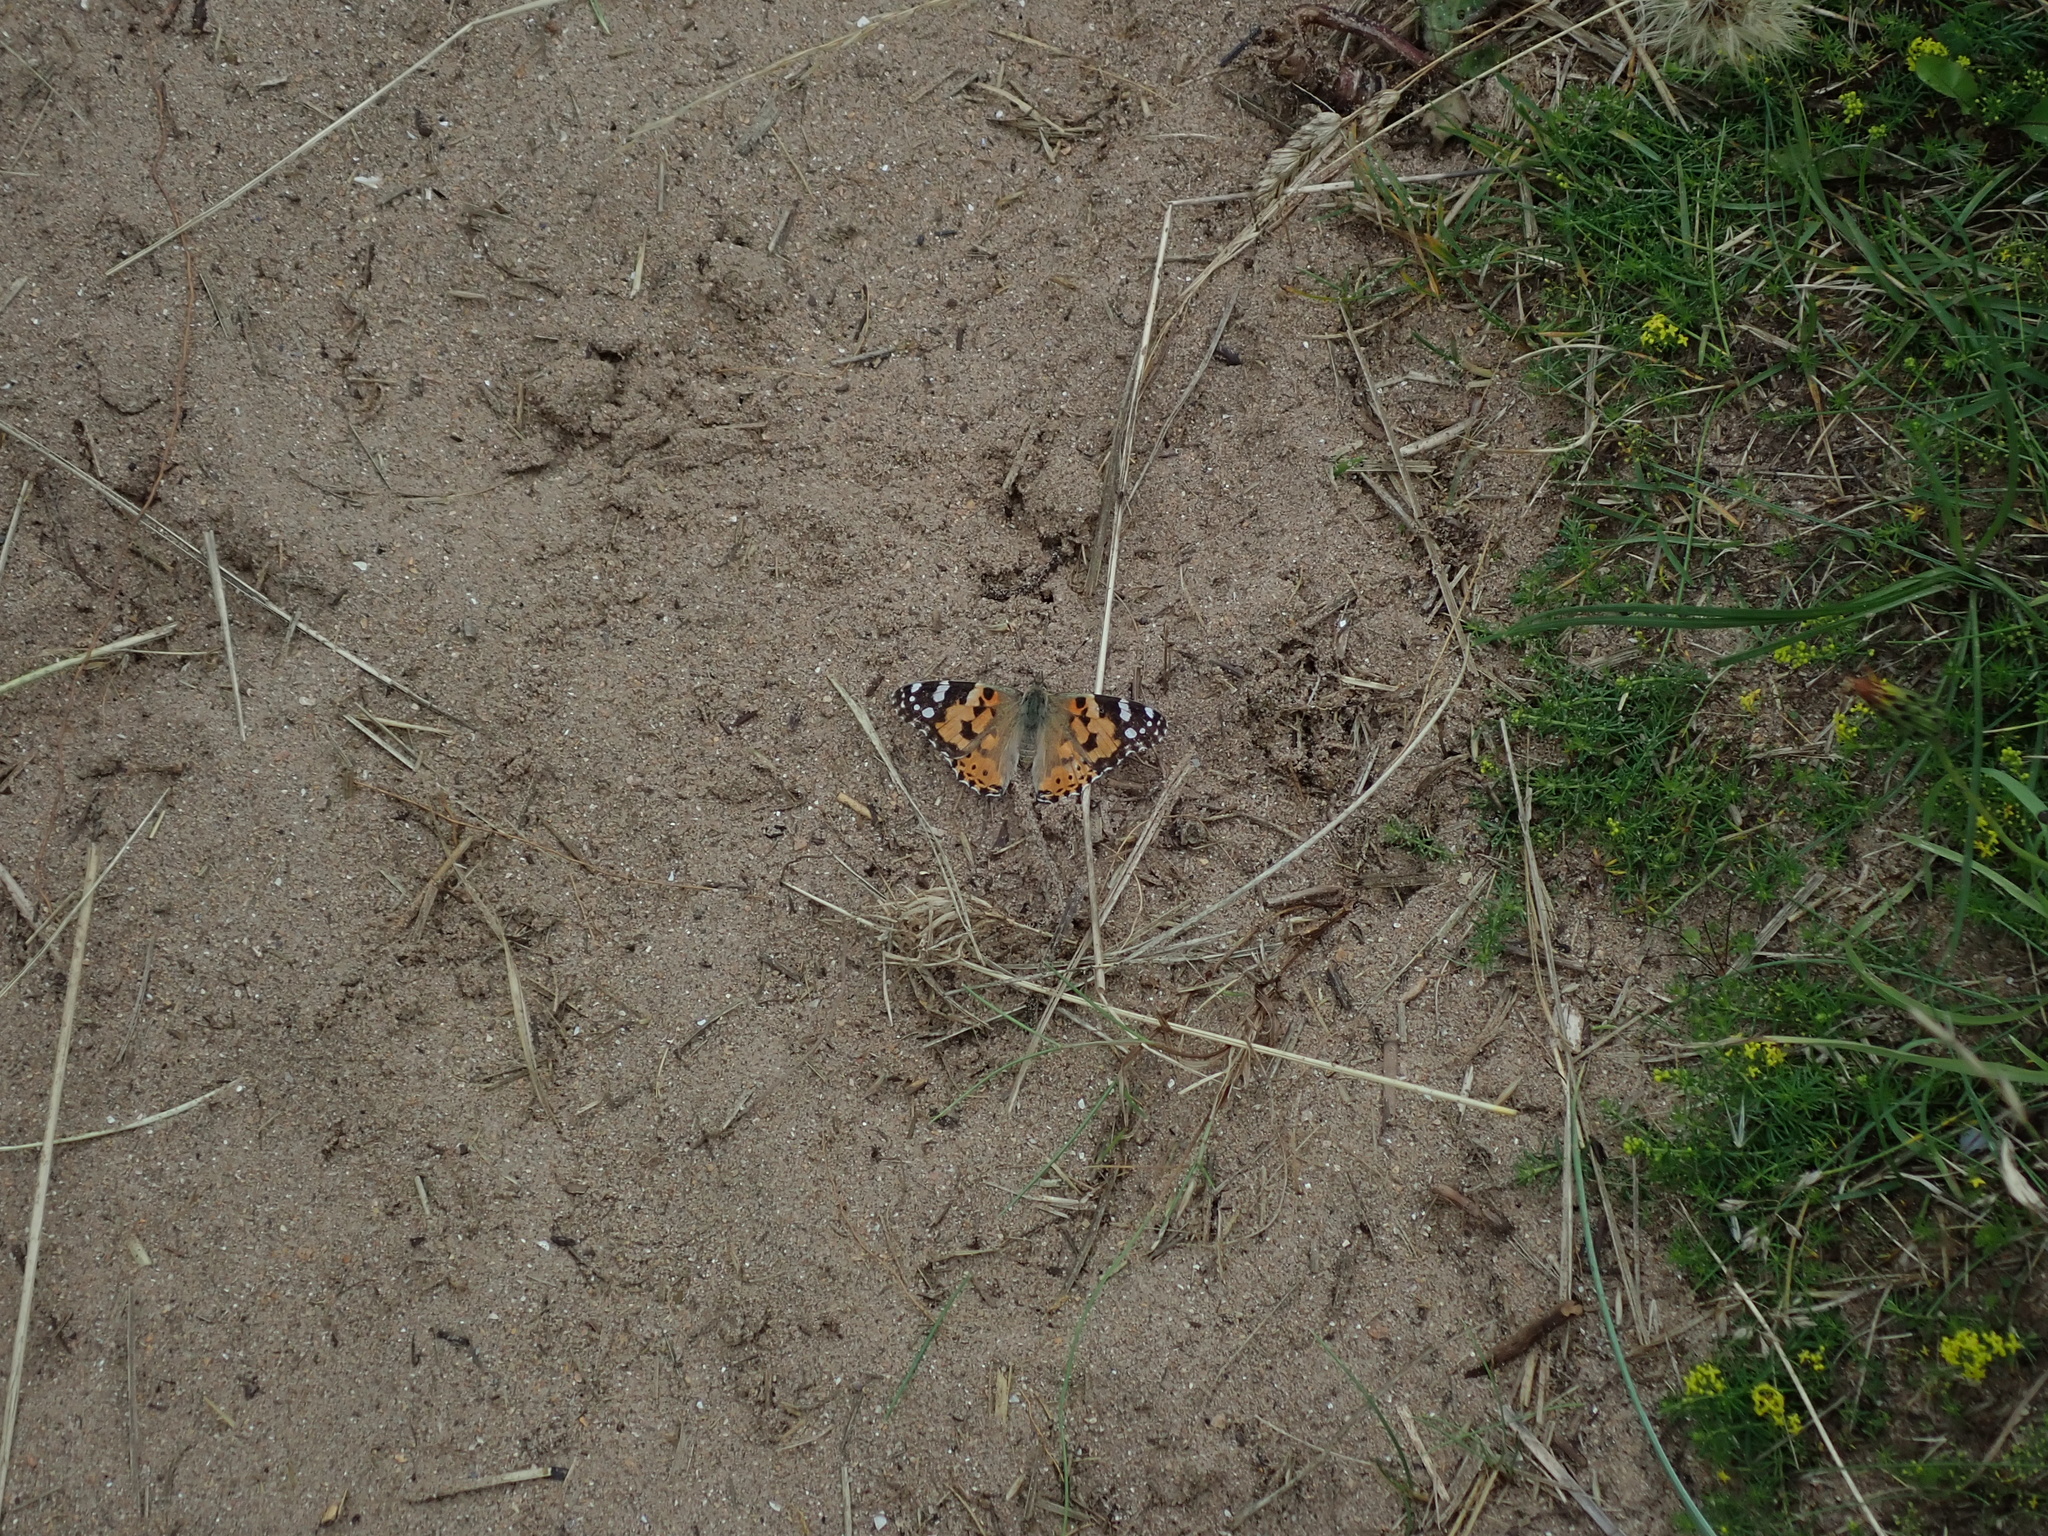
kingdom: Animalia
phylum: Arthropoda
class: Insecta
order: Lepidoptera
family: Nymphalidae
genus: Vanessa
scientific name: Vanessa cardui
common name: Painted lady
